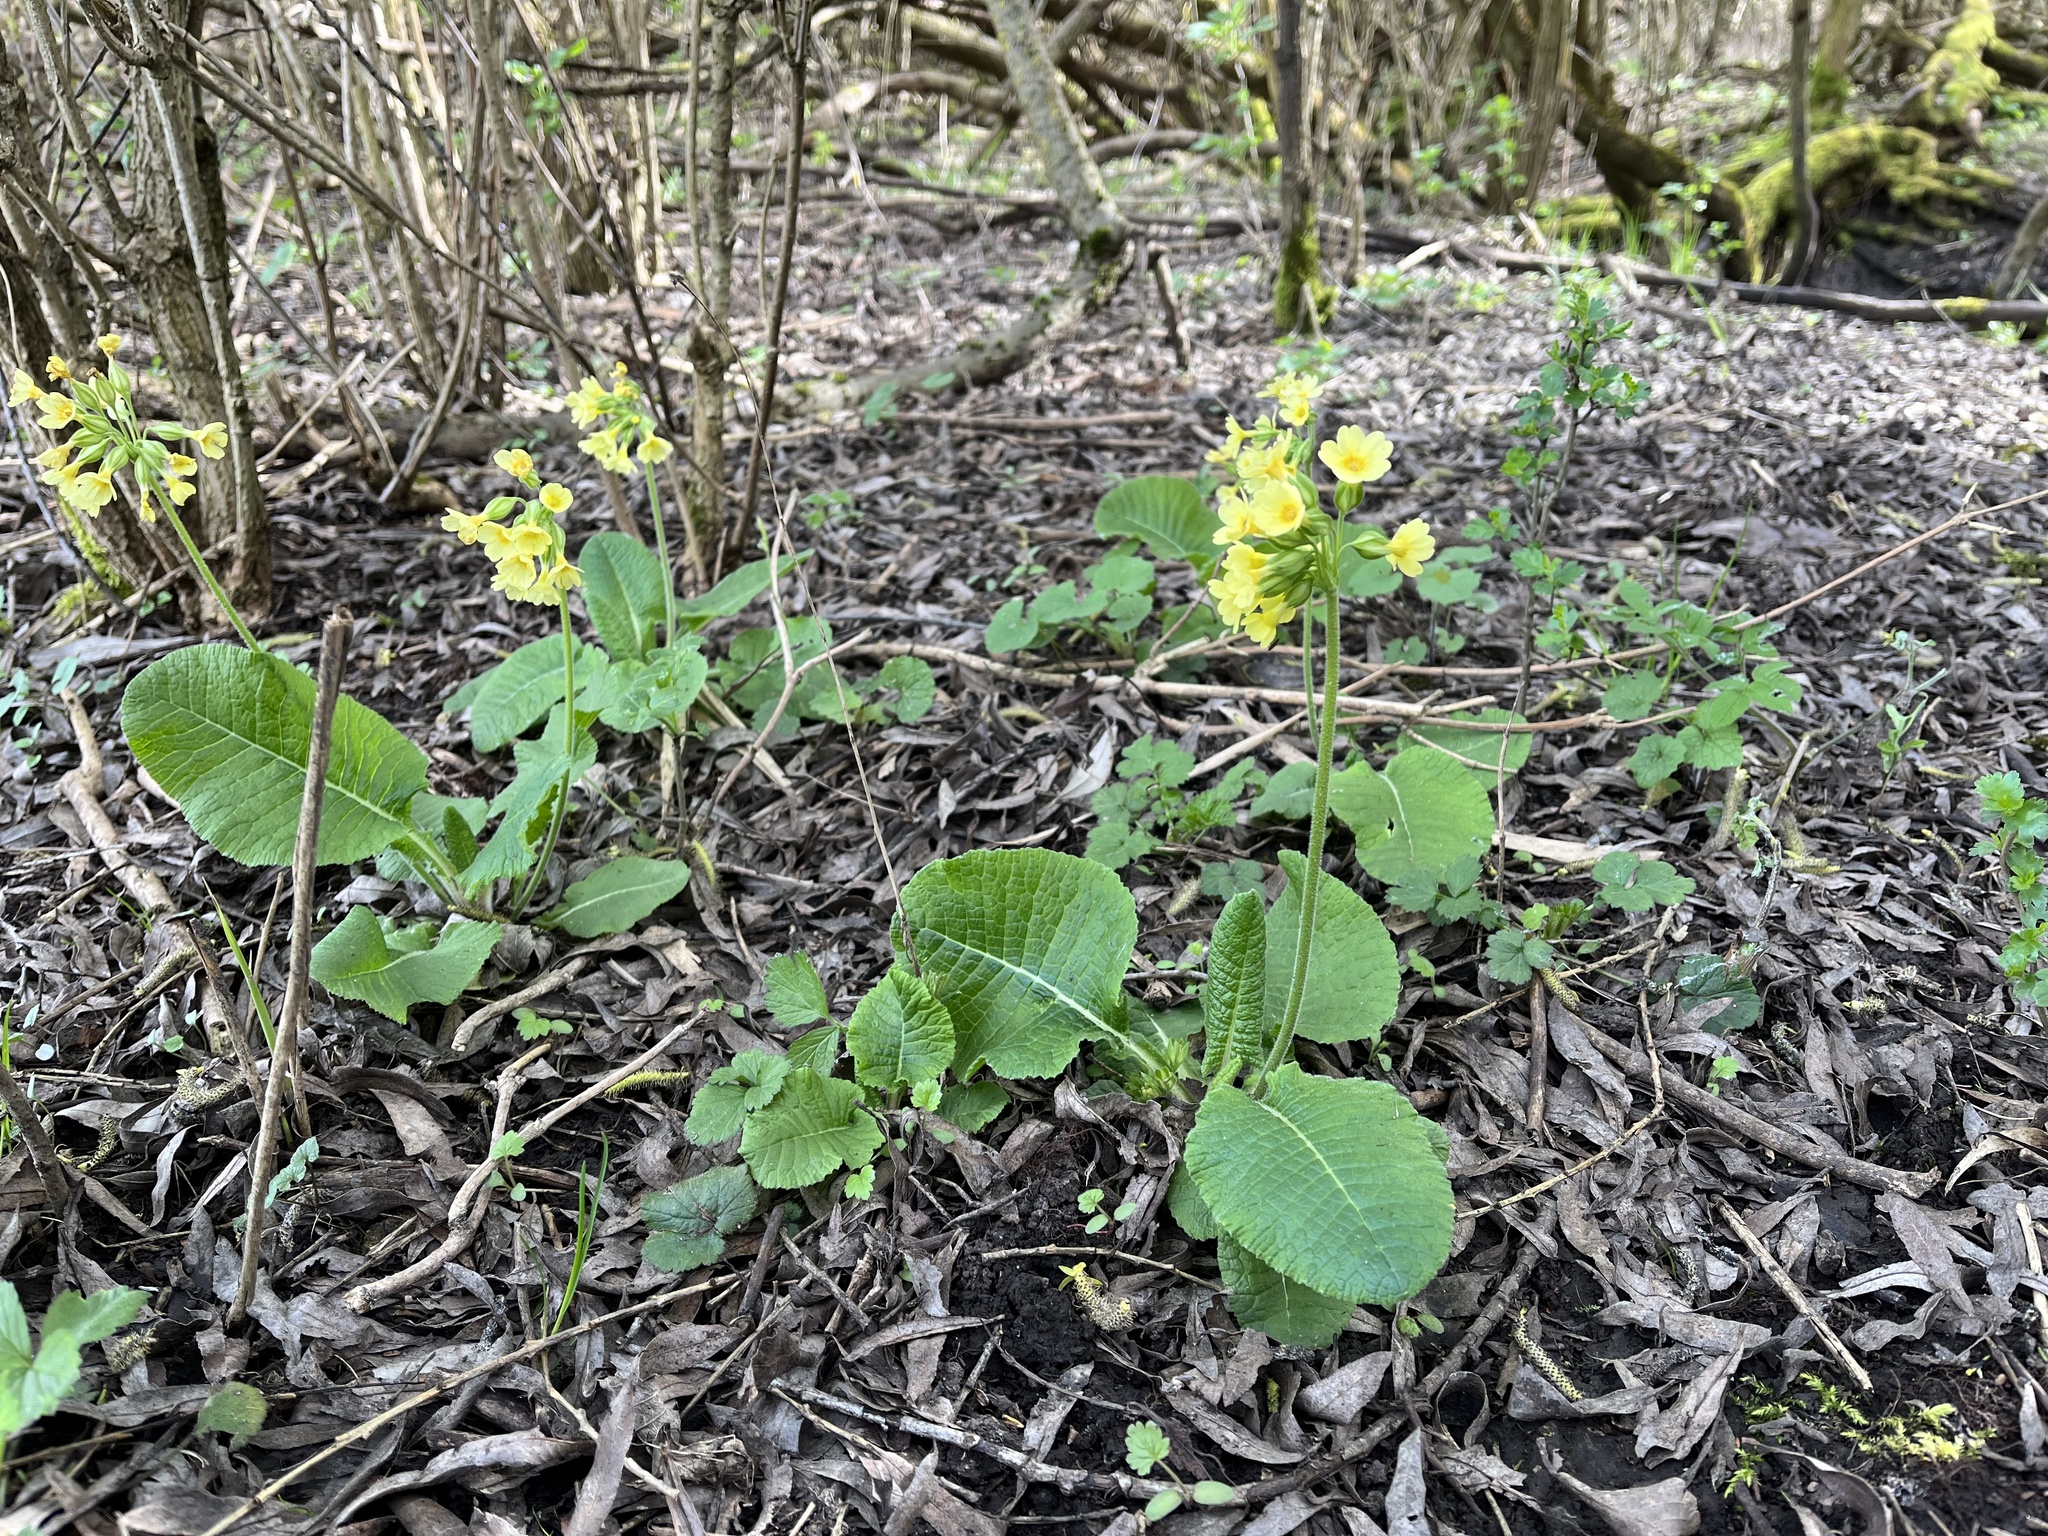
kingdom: Plantae
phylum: Tracheophyta
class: Magnoliopsida
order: Ericales
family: Primulaceae
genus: Primula
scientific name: Primula elatior
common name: Oxlip
